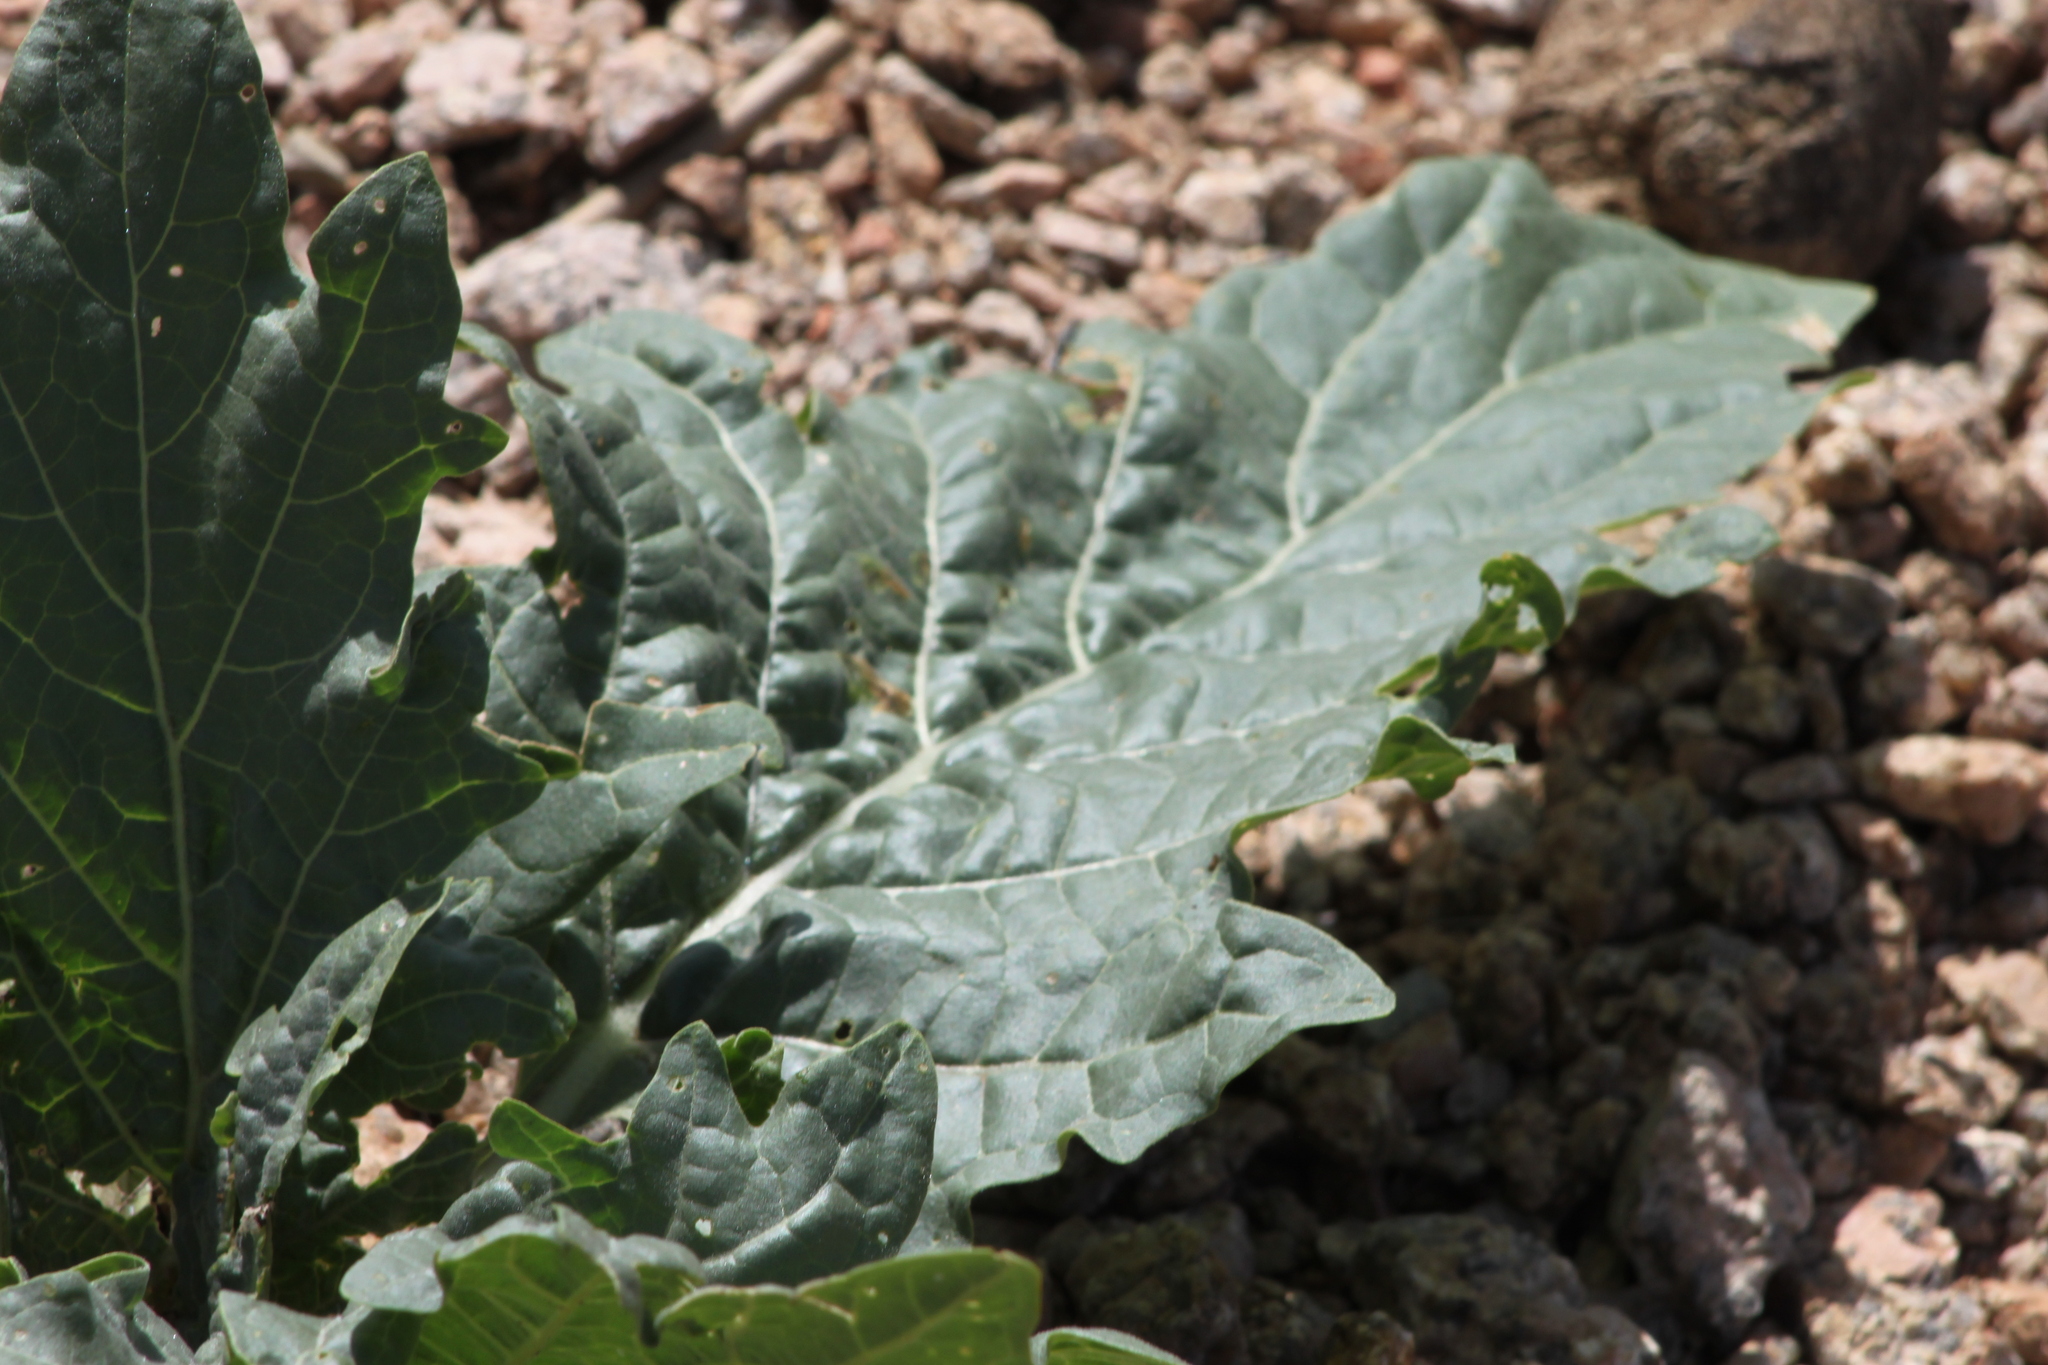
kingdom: Plantae
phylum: Tracheophyta
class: Magnoliopsida
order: Solanales
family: Solanaceae
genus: Hyoscyamus
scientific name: Hyoscyamus niger
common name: Henbane
